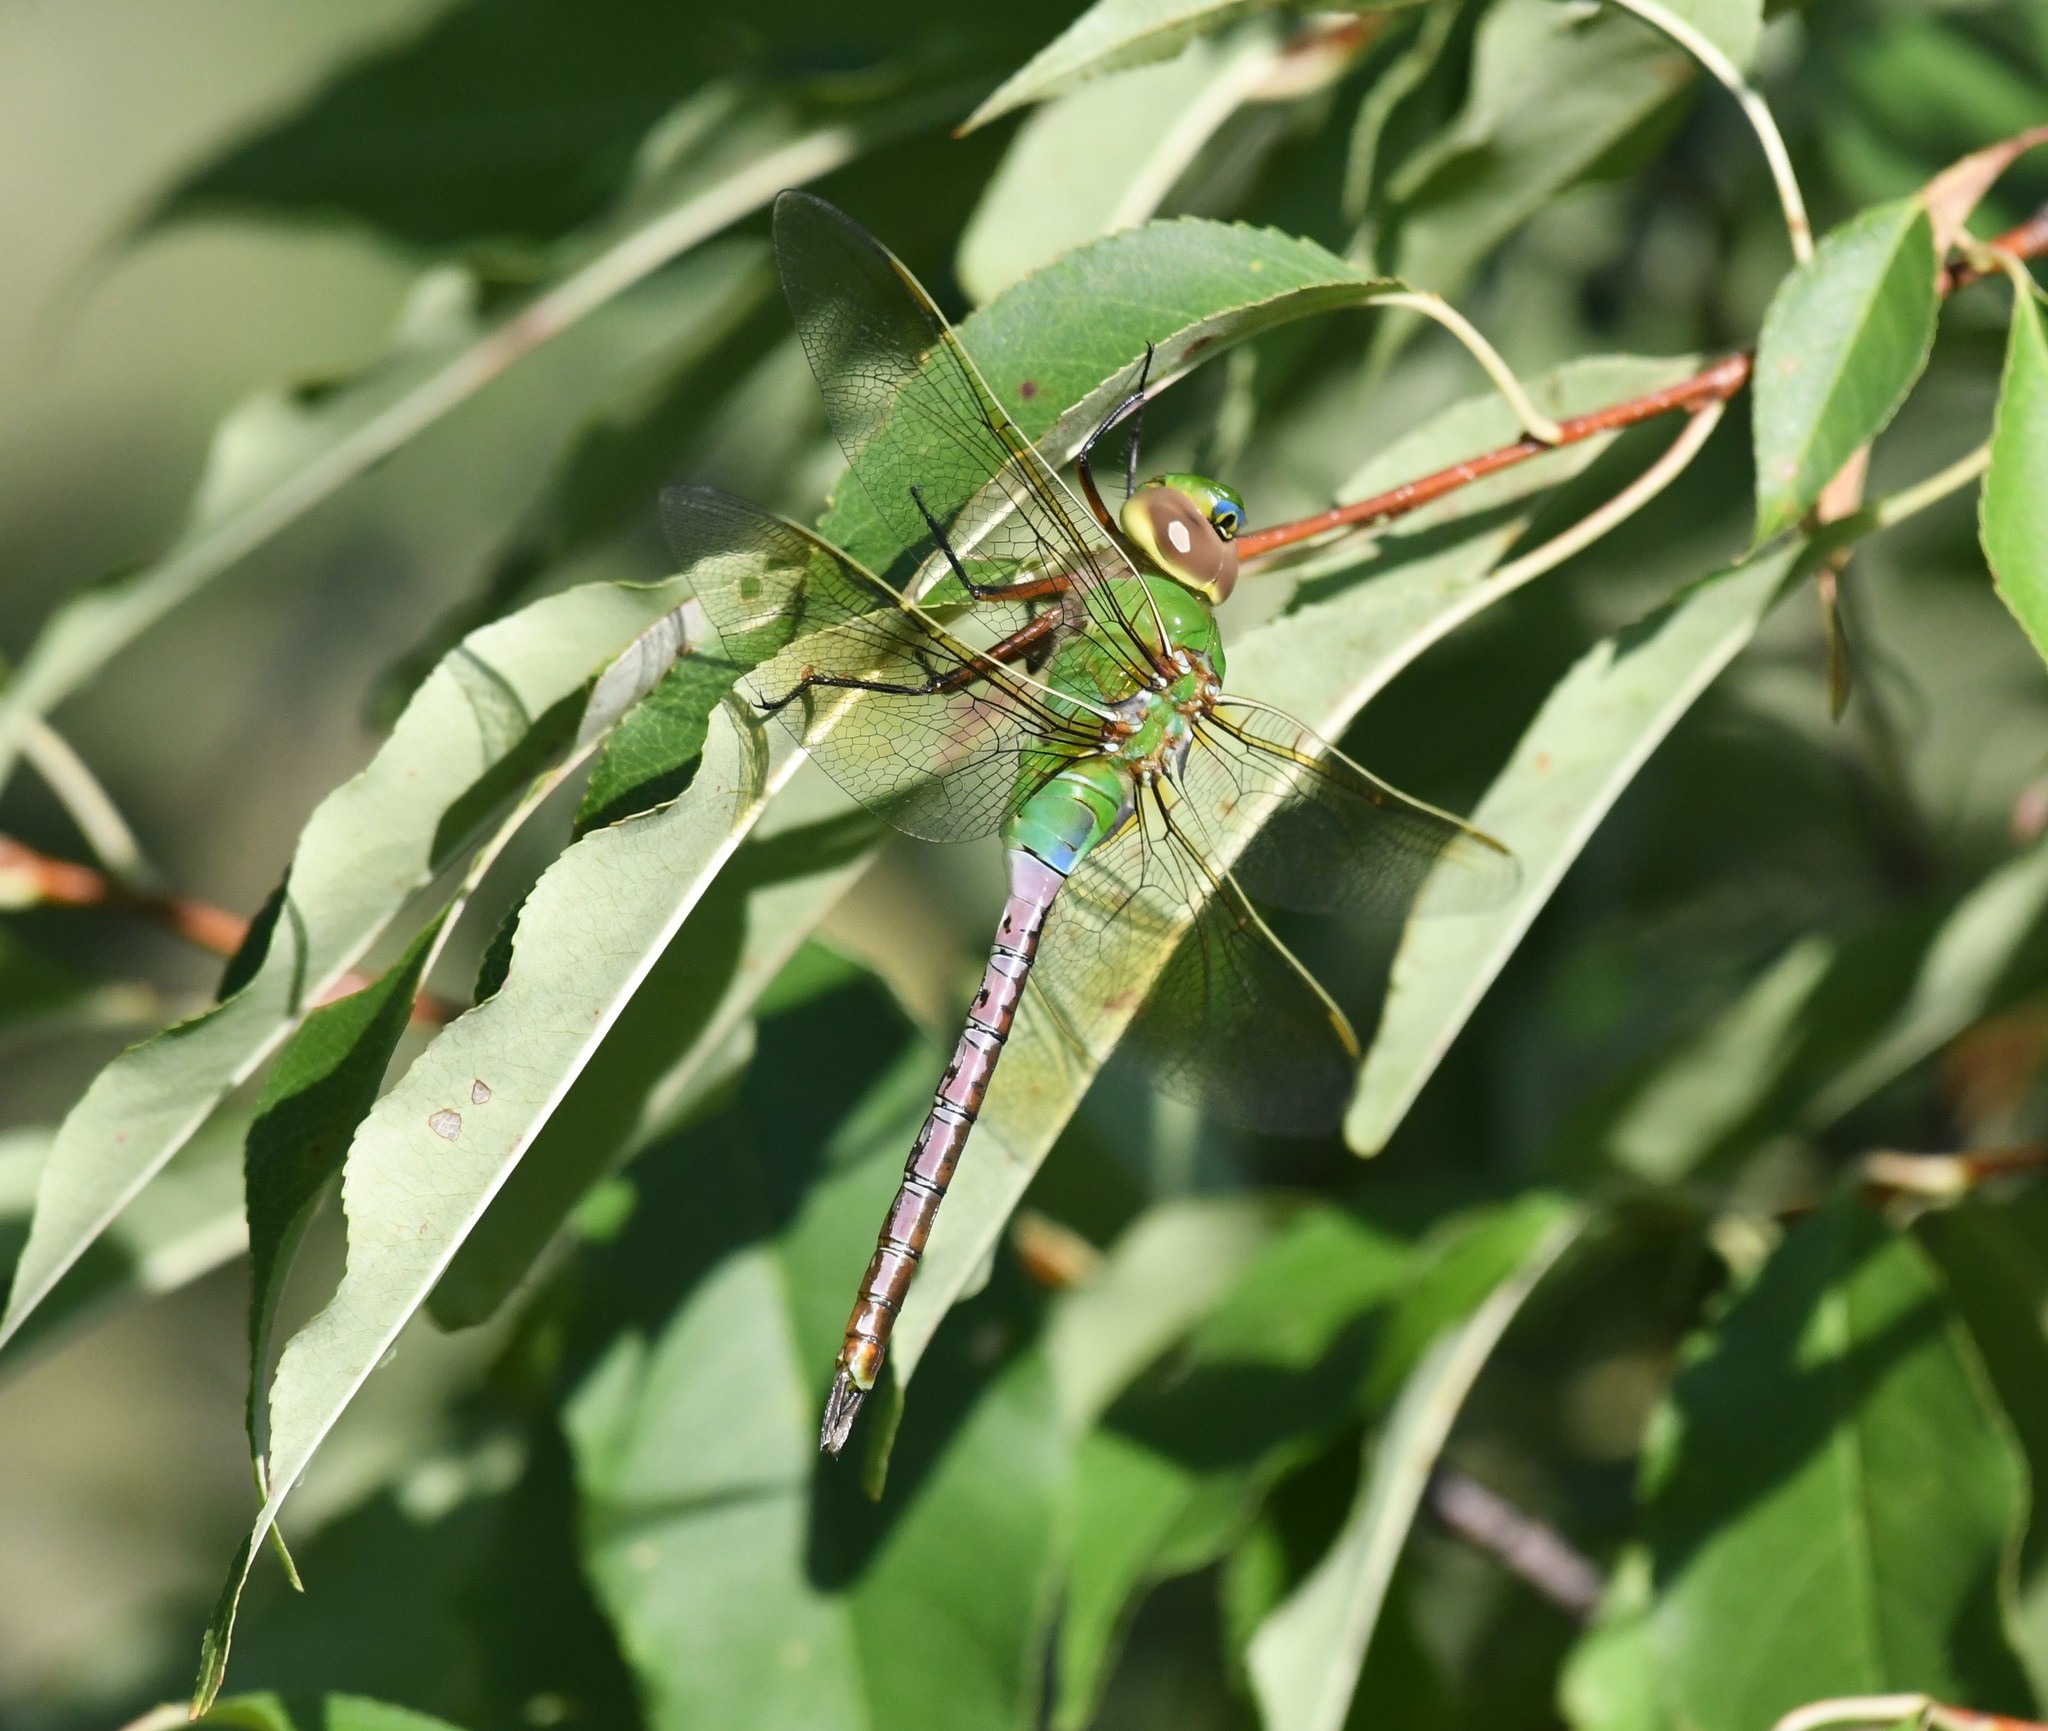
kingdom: Animalia
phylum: Arthropoda
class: Insecta
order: Odonata
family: Aeshnidae
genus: Anax
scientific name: Anax junius
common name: Common green darner
